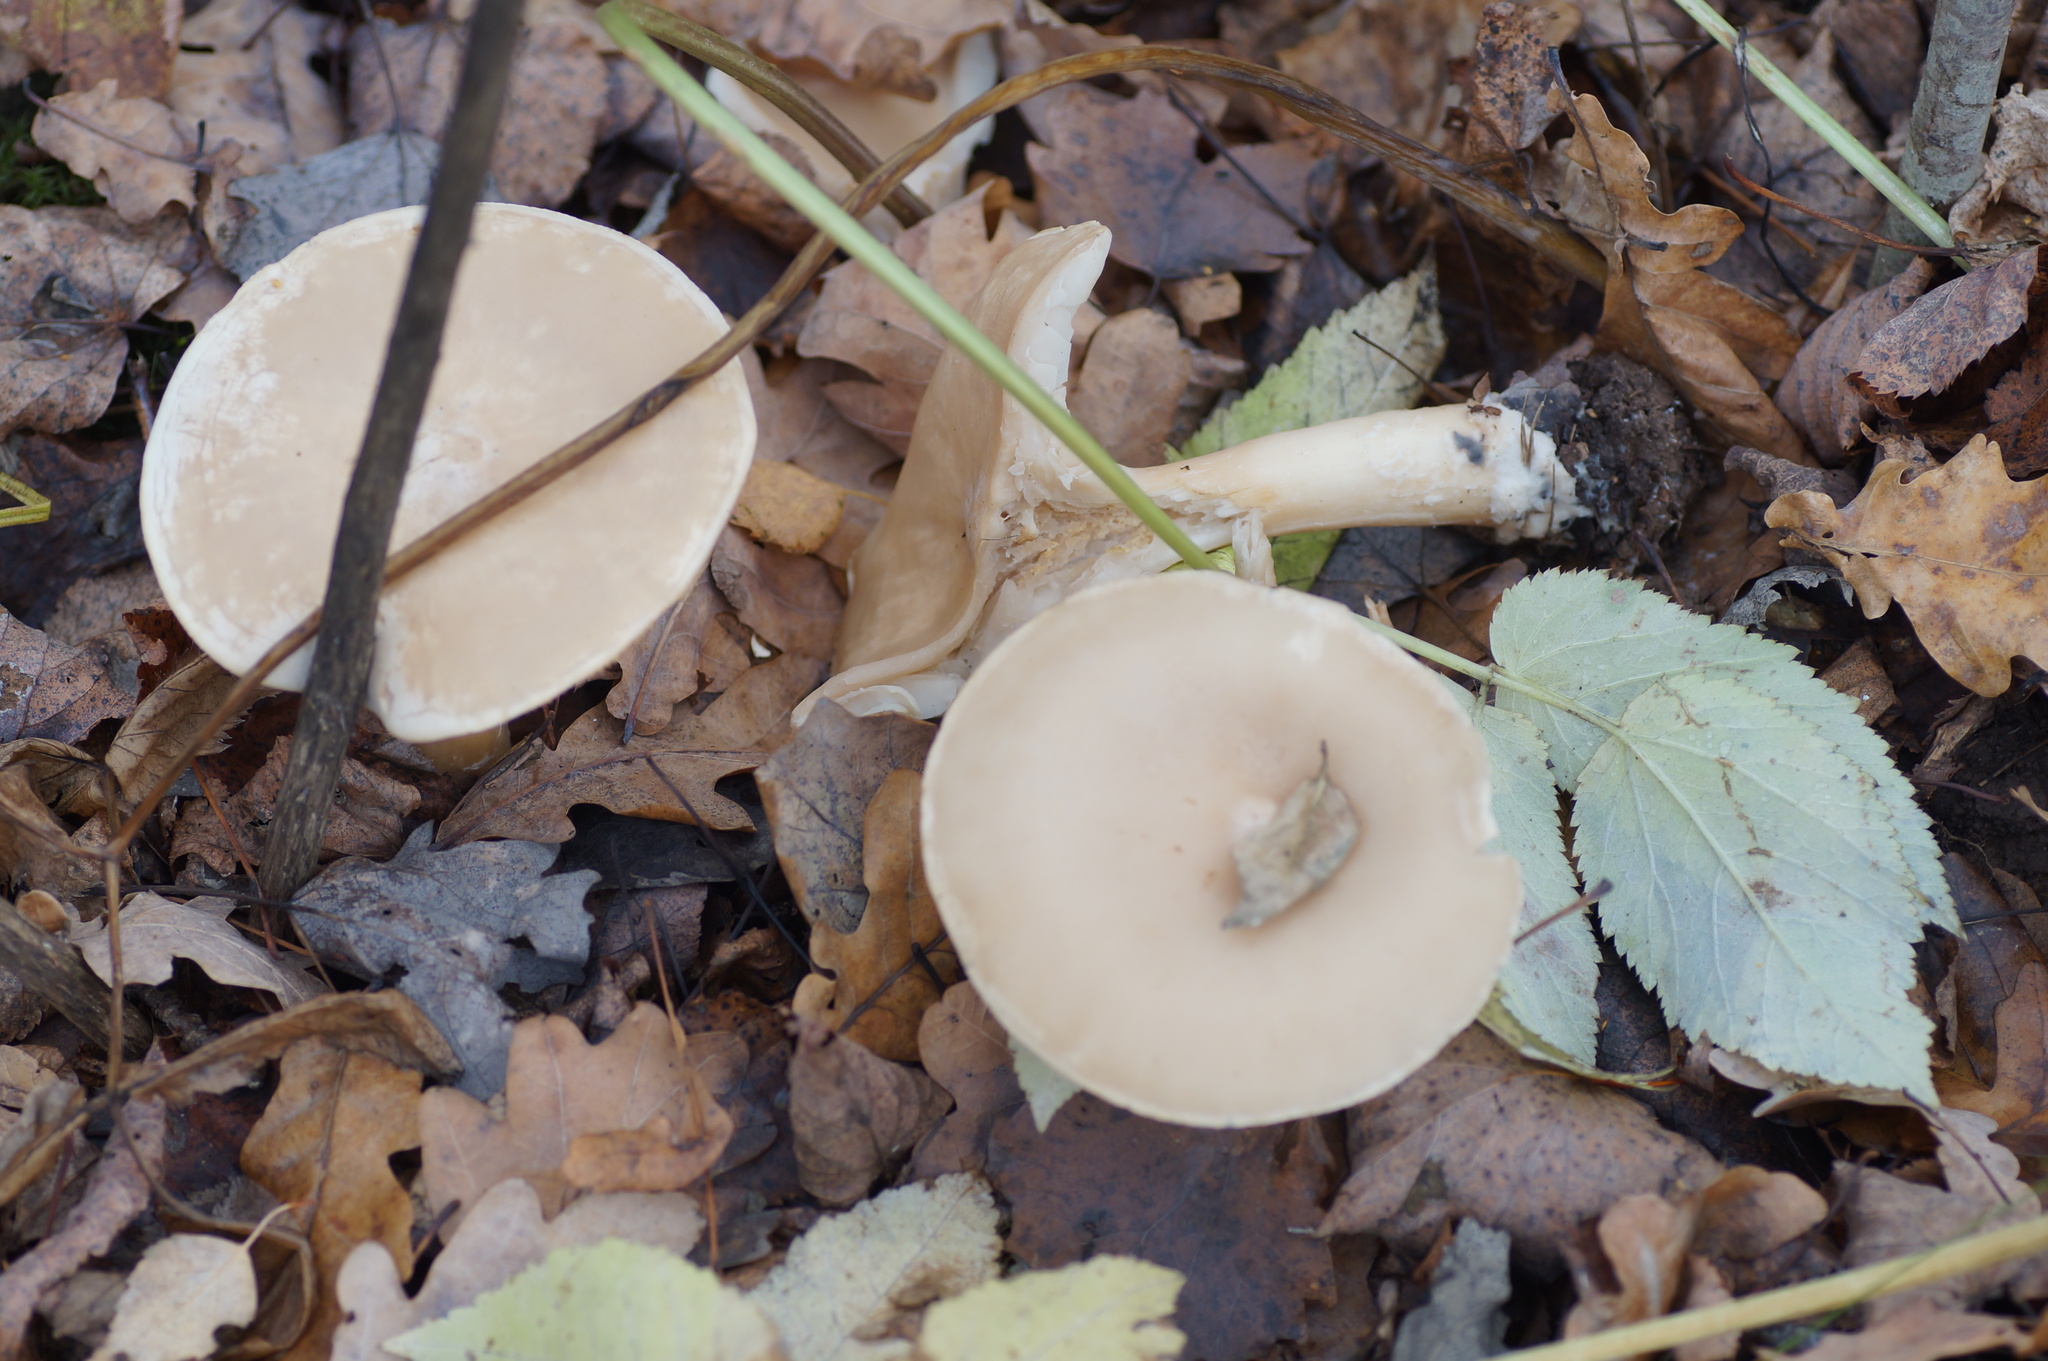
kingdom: Fungi
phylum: Basidiomycota
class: Agaricomycetes
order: Agaricales
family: Tricholomataceae
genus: Infundibulicybe
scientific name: Infundibulicybe geotropa
